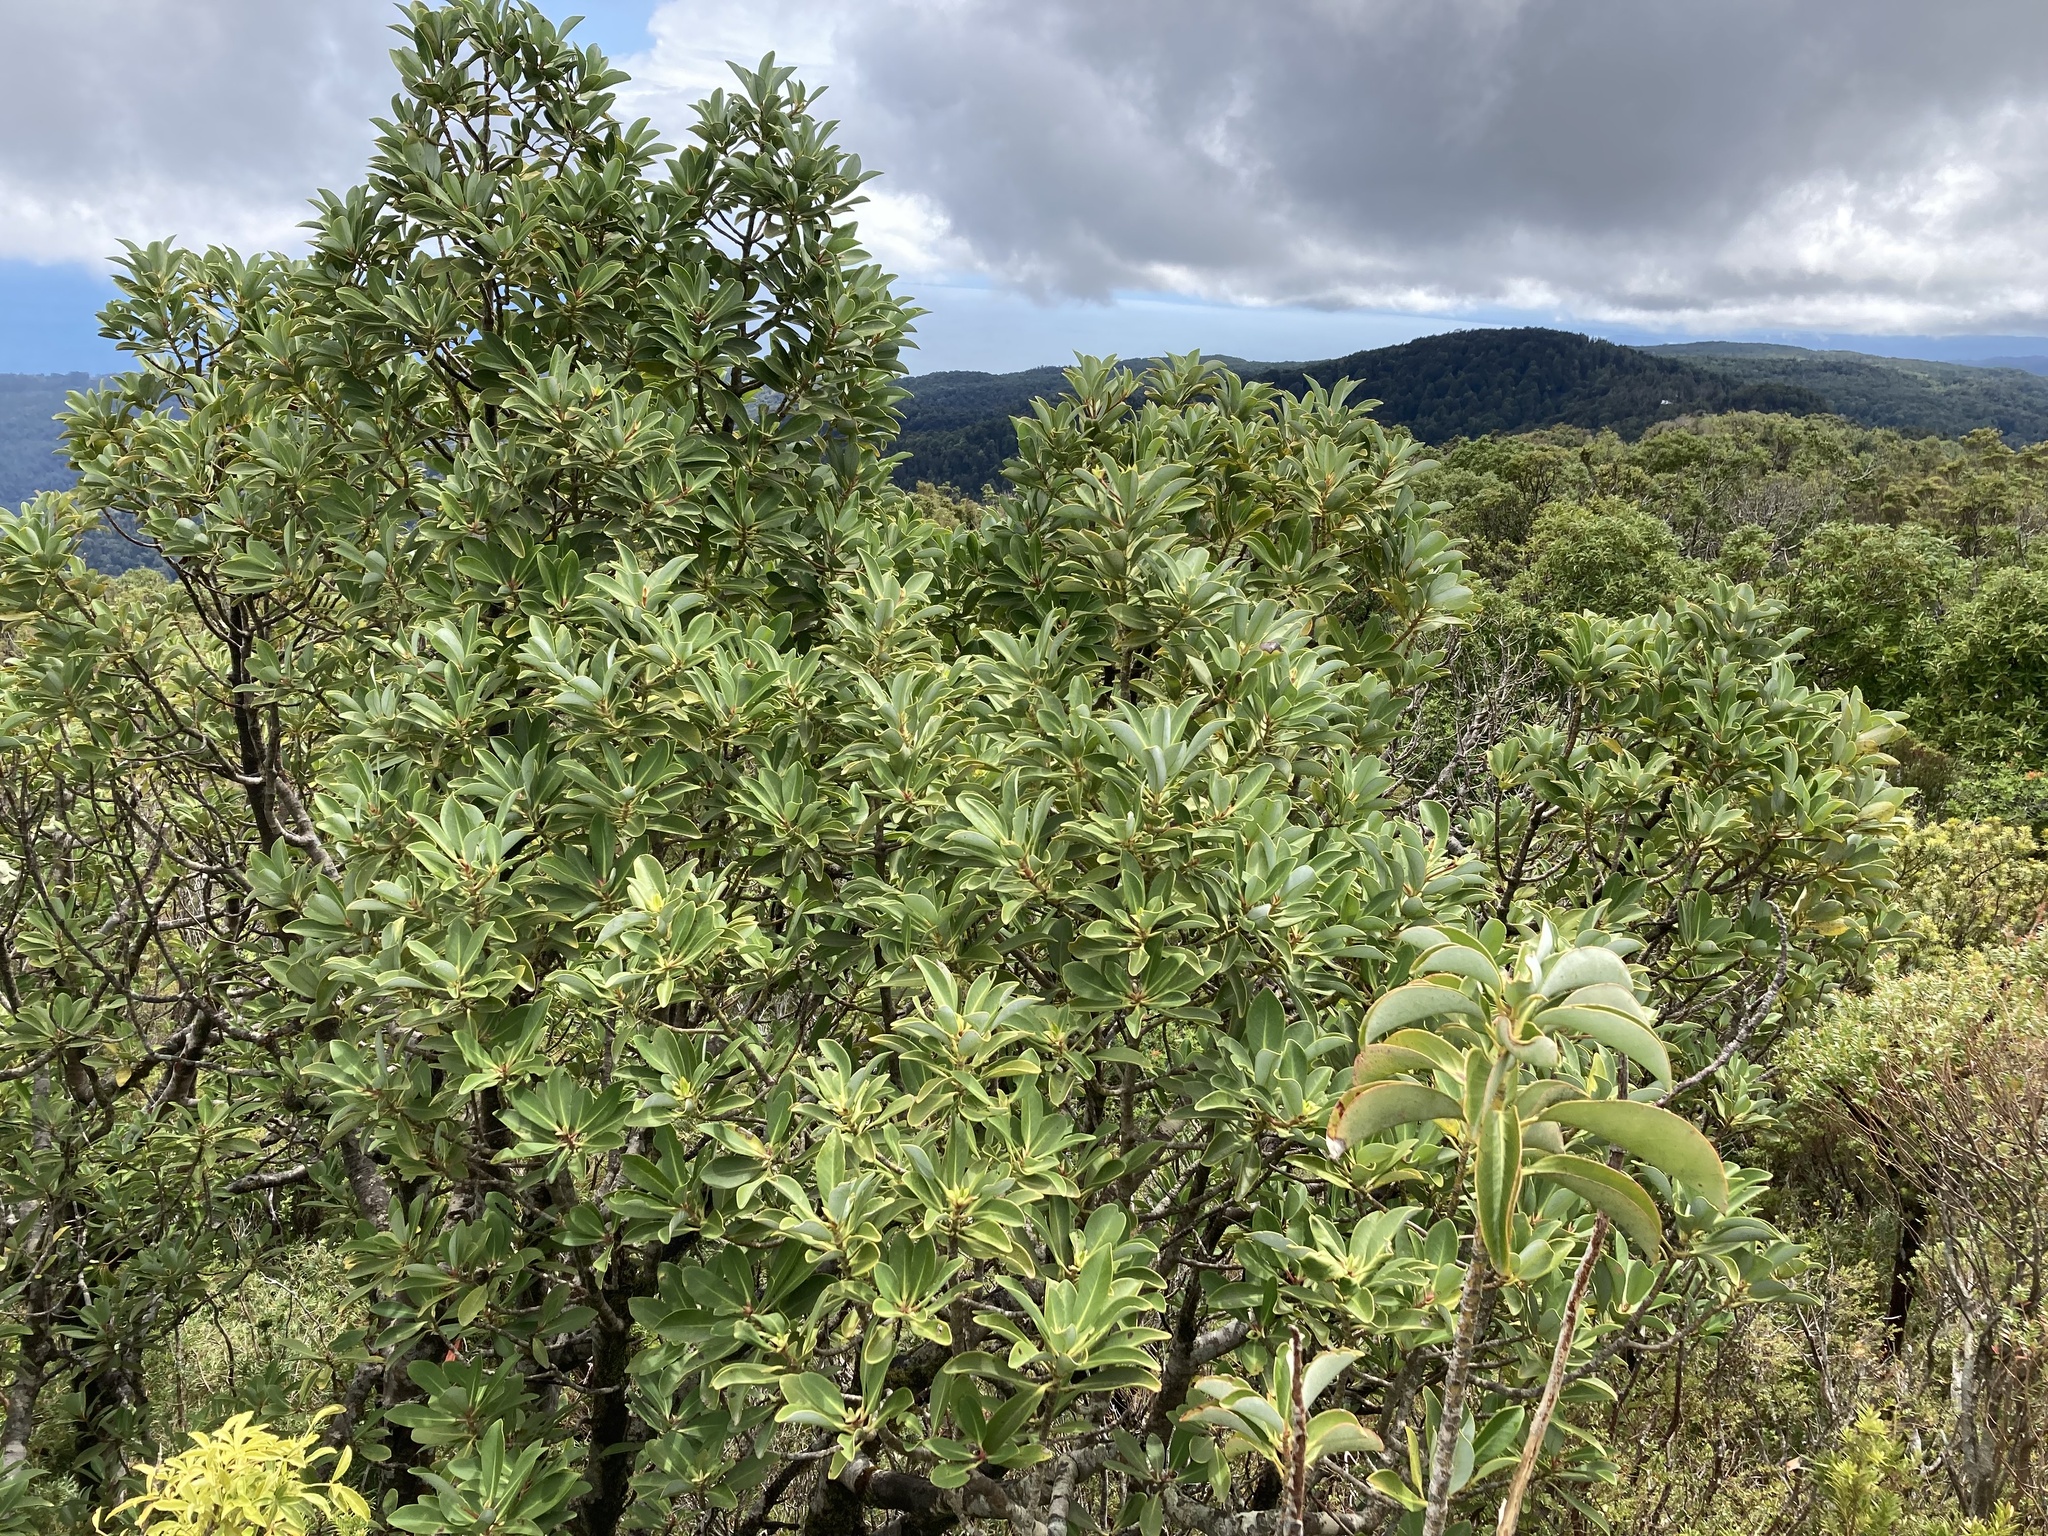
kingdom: Plantae
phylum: Tracheophyta
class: Magnoliopsida
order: Canellales
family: Winteraceae
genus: Drimys
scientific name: Drimys winteri
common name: Winter's-bark
